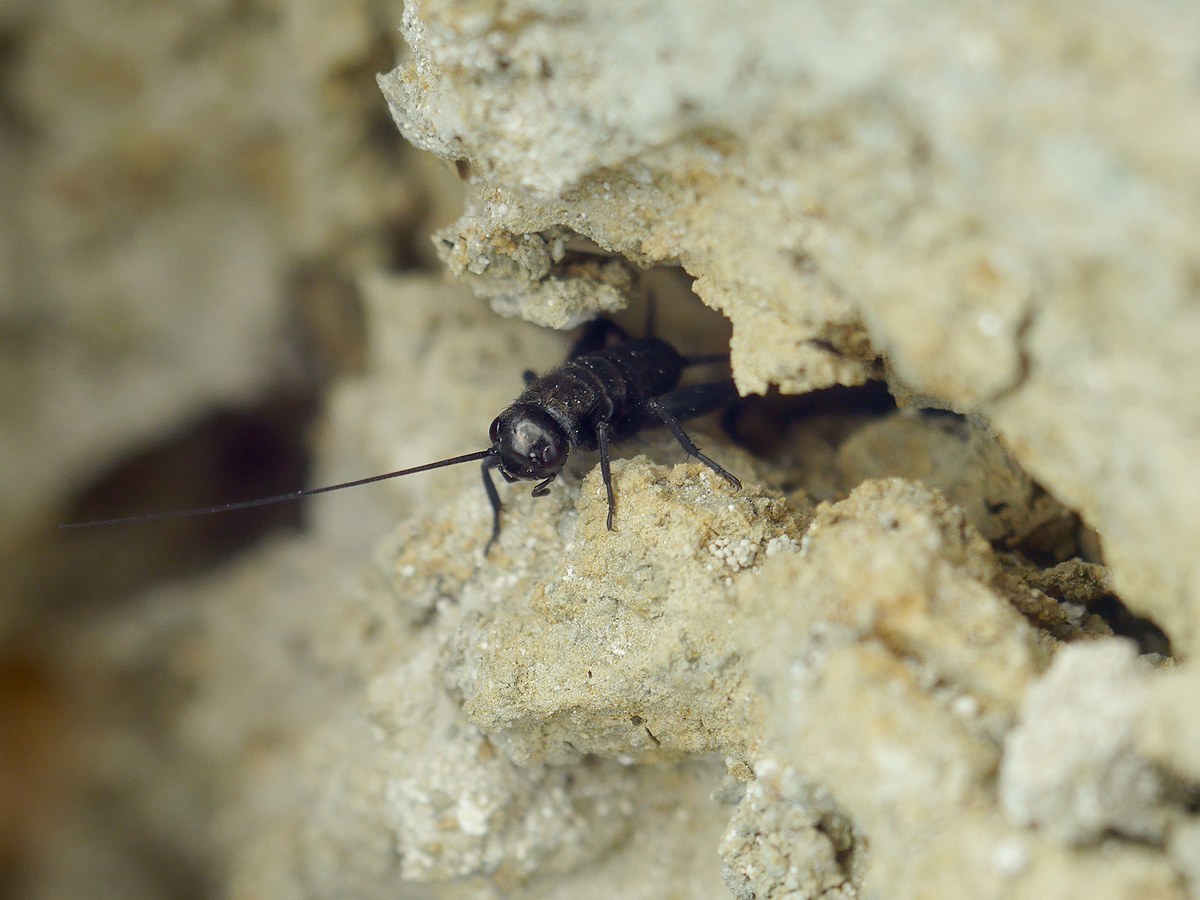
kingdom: Animalia
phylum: Arthropoda
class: Insecta
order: Orthoptera
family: Gryllidae
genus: Melanogryllus
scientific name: Melanogryllus desertus
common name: Desert cricket
